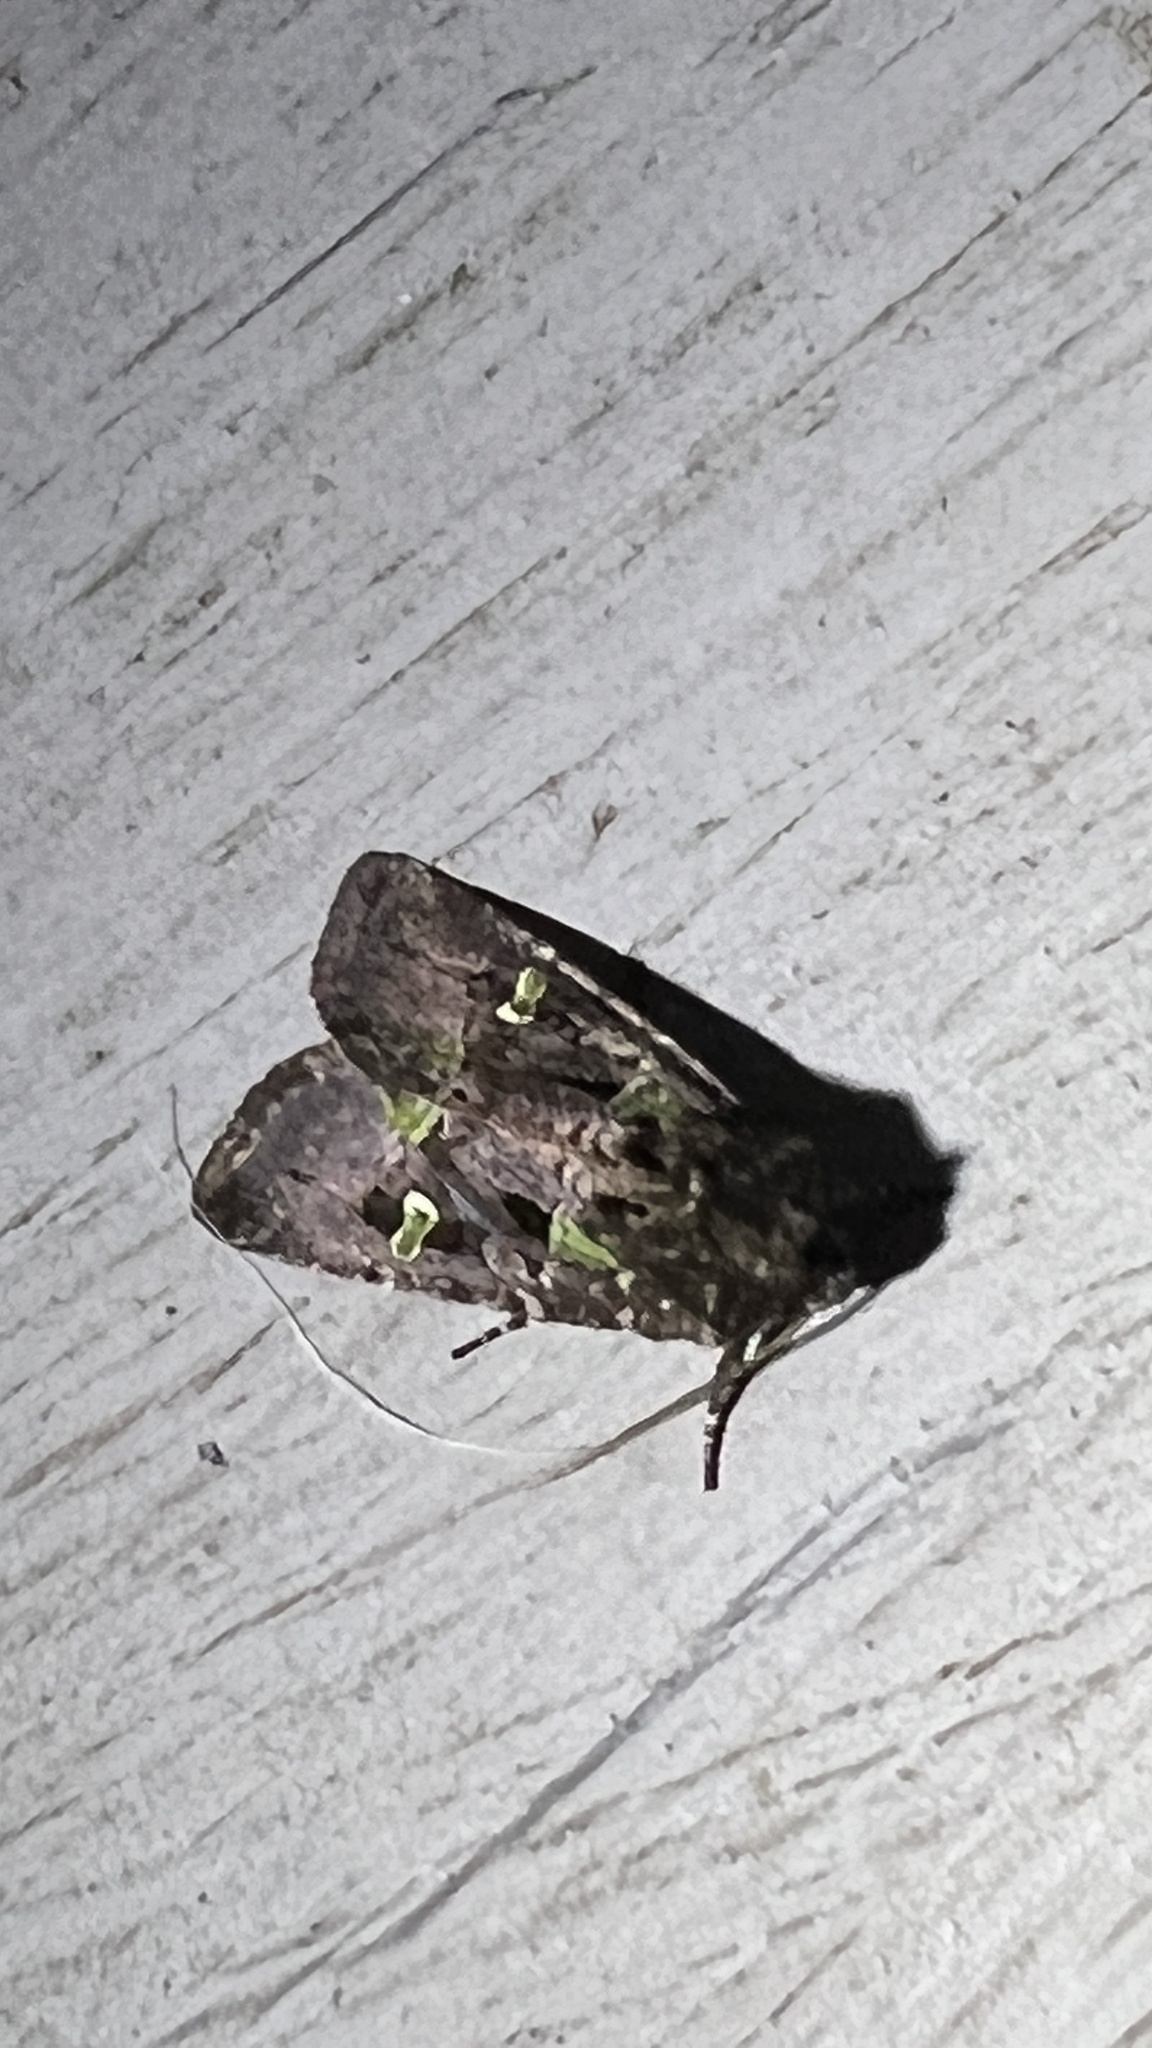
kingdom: Animalia
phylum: Arthropoda
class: Insecta
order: Lepidoptera
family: Noctuidae
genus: Lacinipolia
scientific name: Lacinipolia renigera
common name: Kidney-spotted minor
